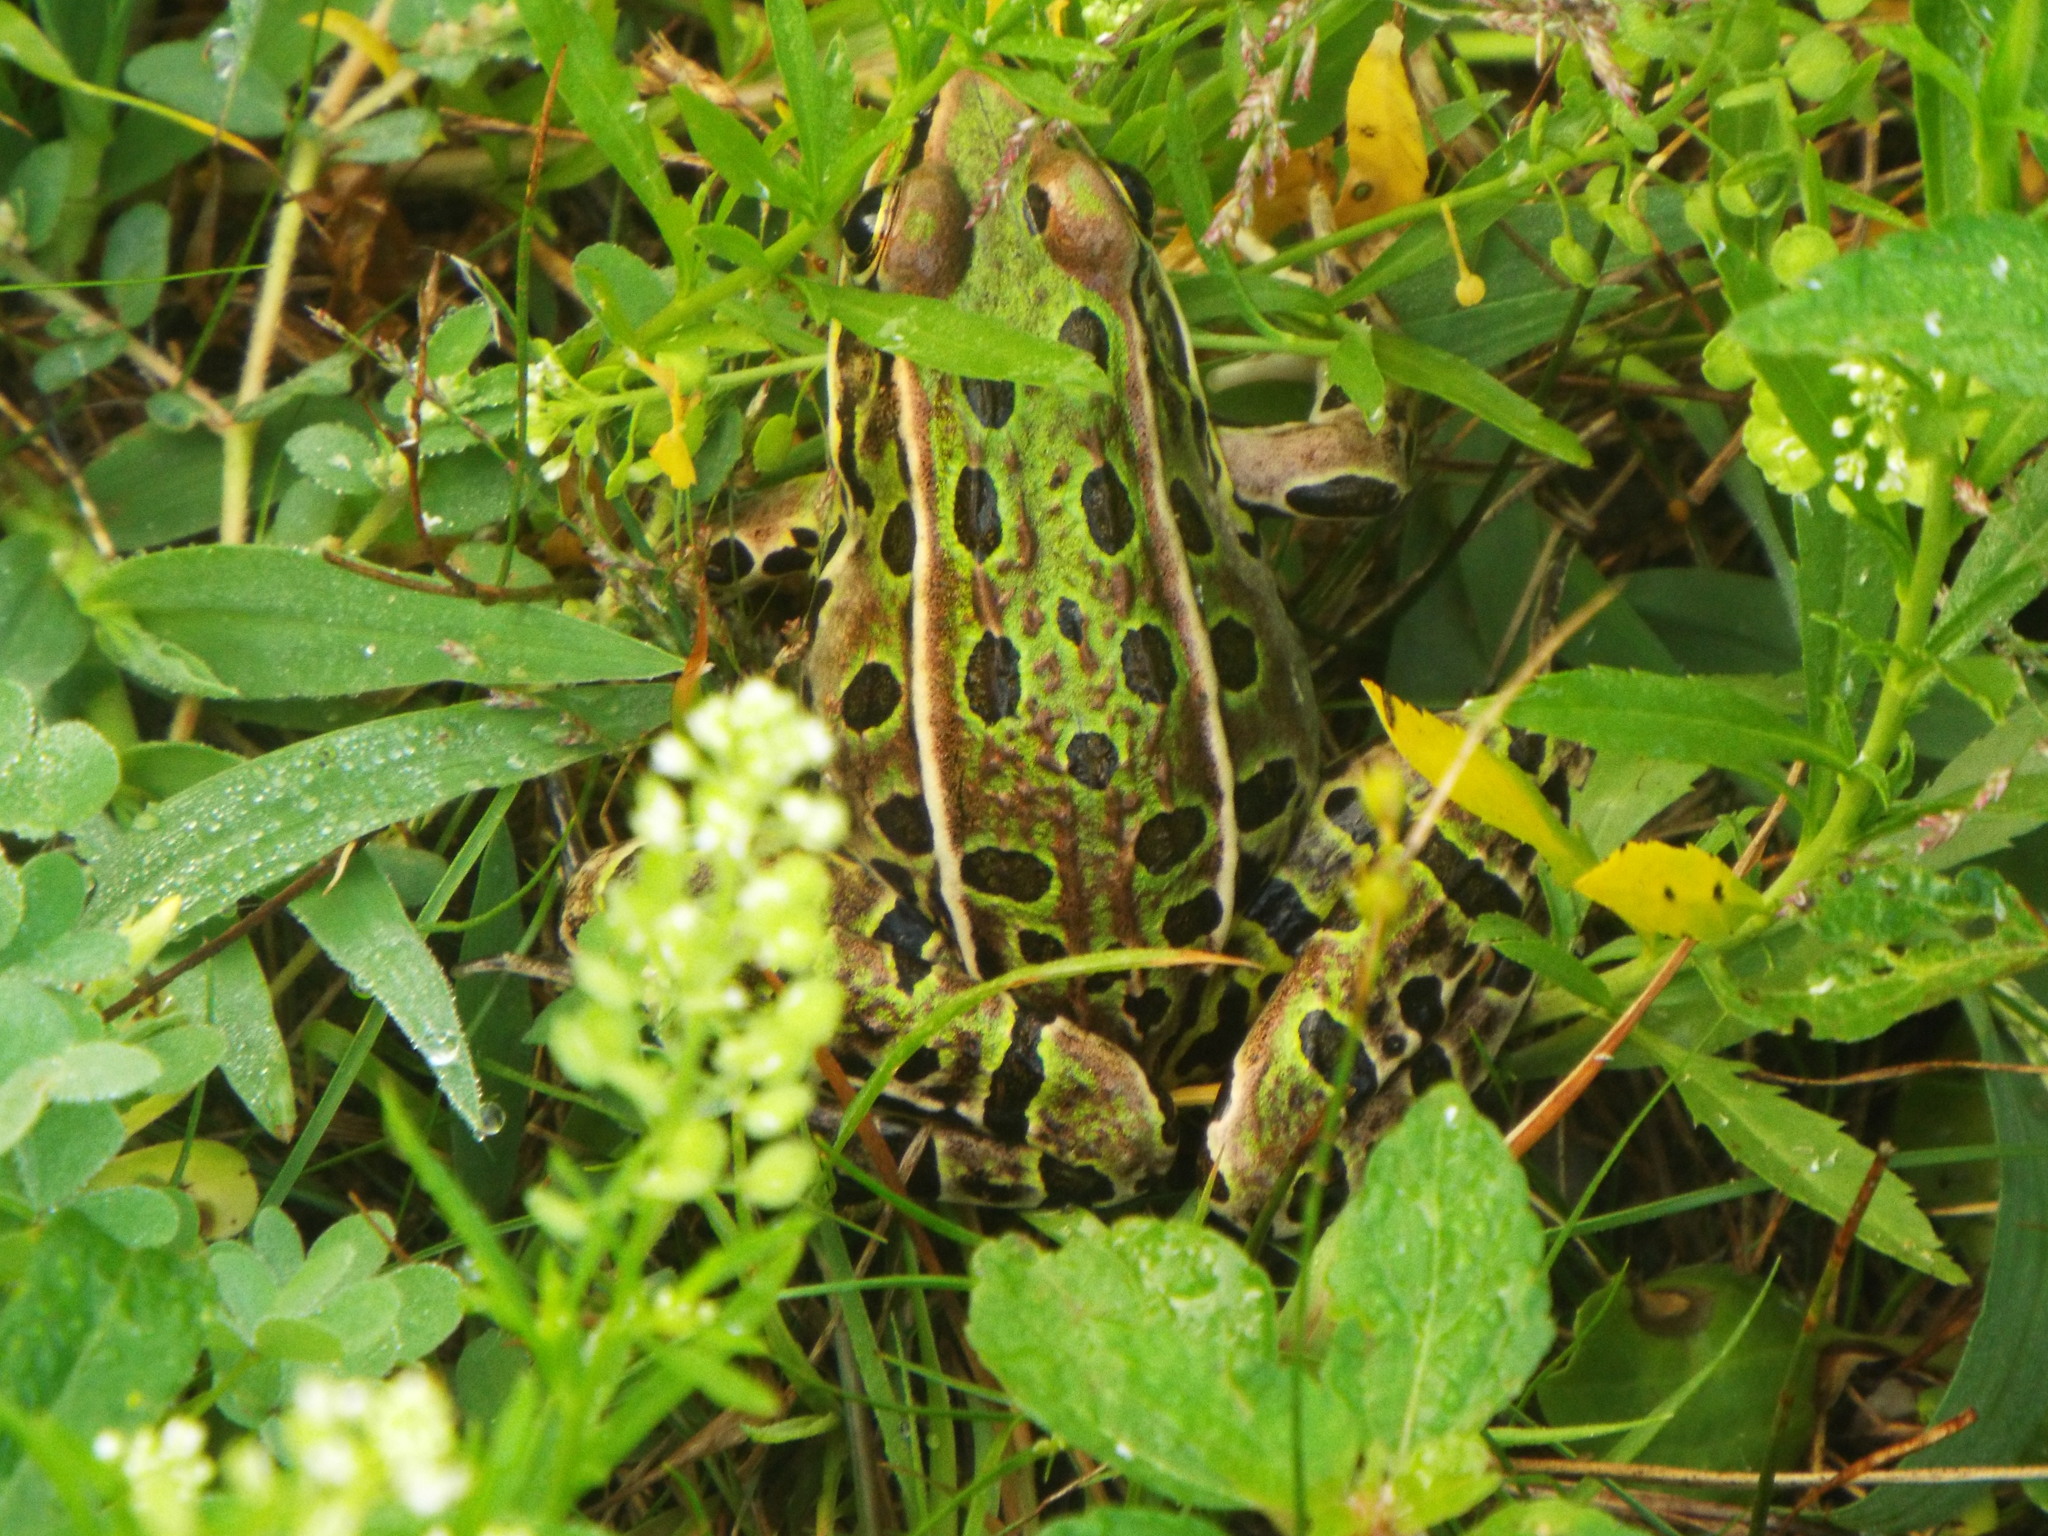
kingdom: Animalia
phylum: Chordata
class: Amphibia
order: Anura
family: Ranidae
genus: Lithobates
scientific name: Lithobates pipiens
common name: Northern leopard frog
